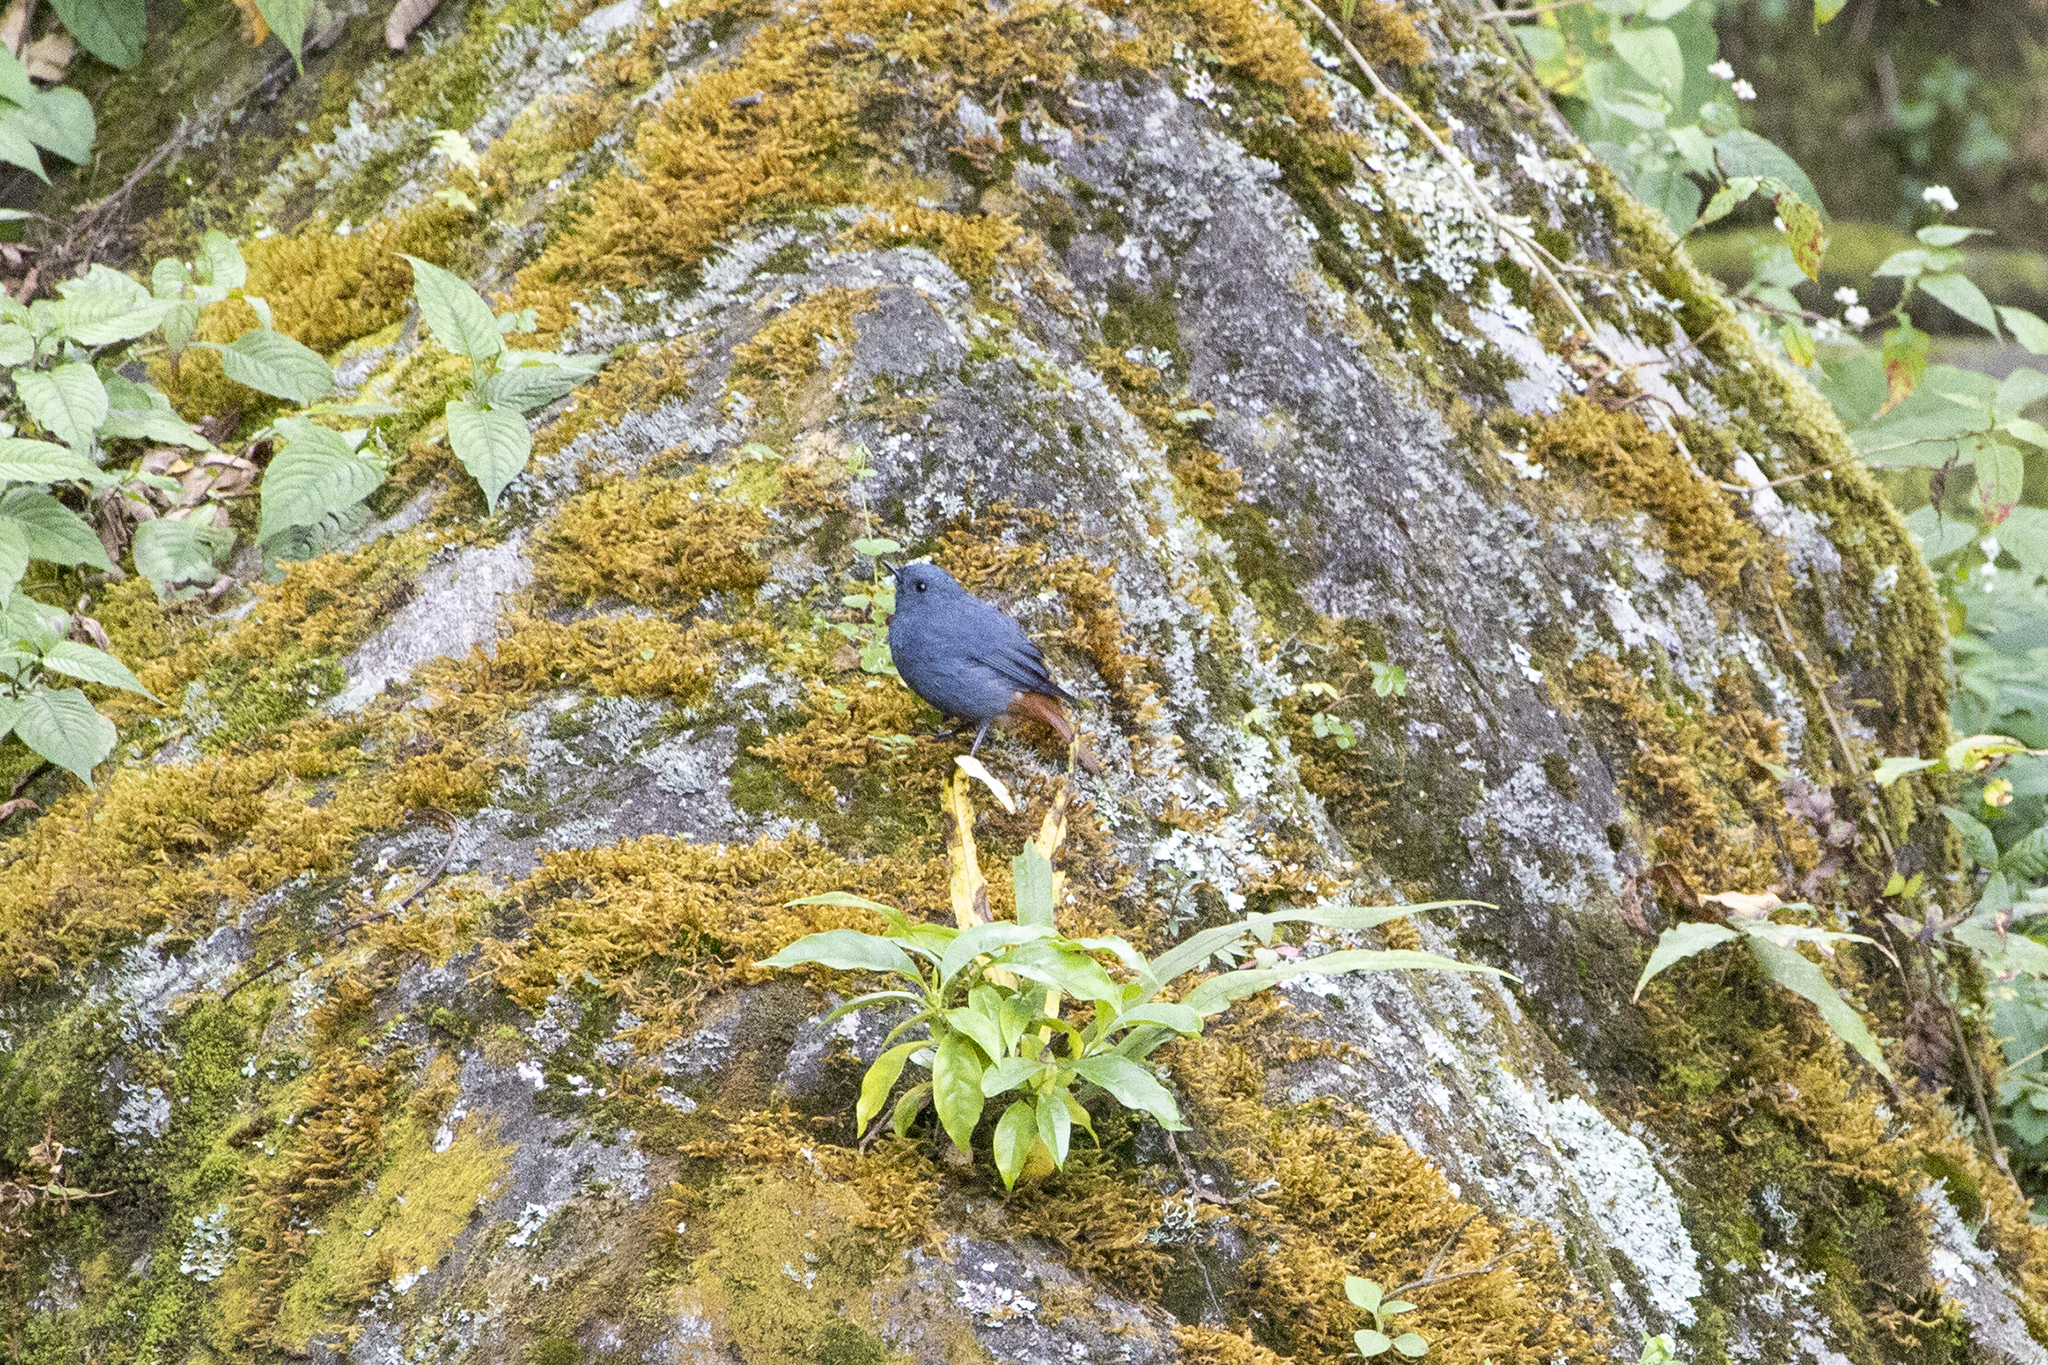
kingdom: Animalia
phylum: Chordata
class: Aves
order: Passeriformes
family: Muscicapidae
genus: Phoenicurus
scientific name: Phoenicurus fuliginosus
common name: Plumbeous water redstart
